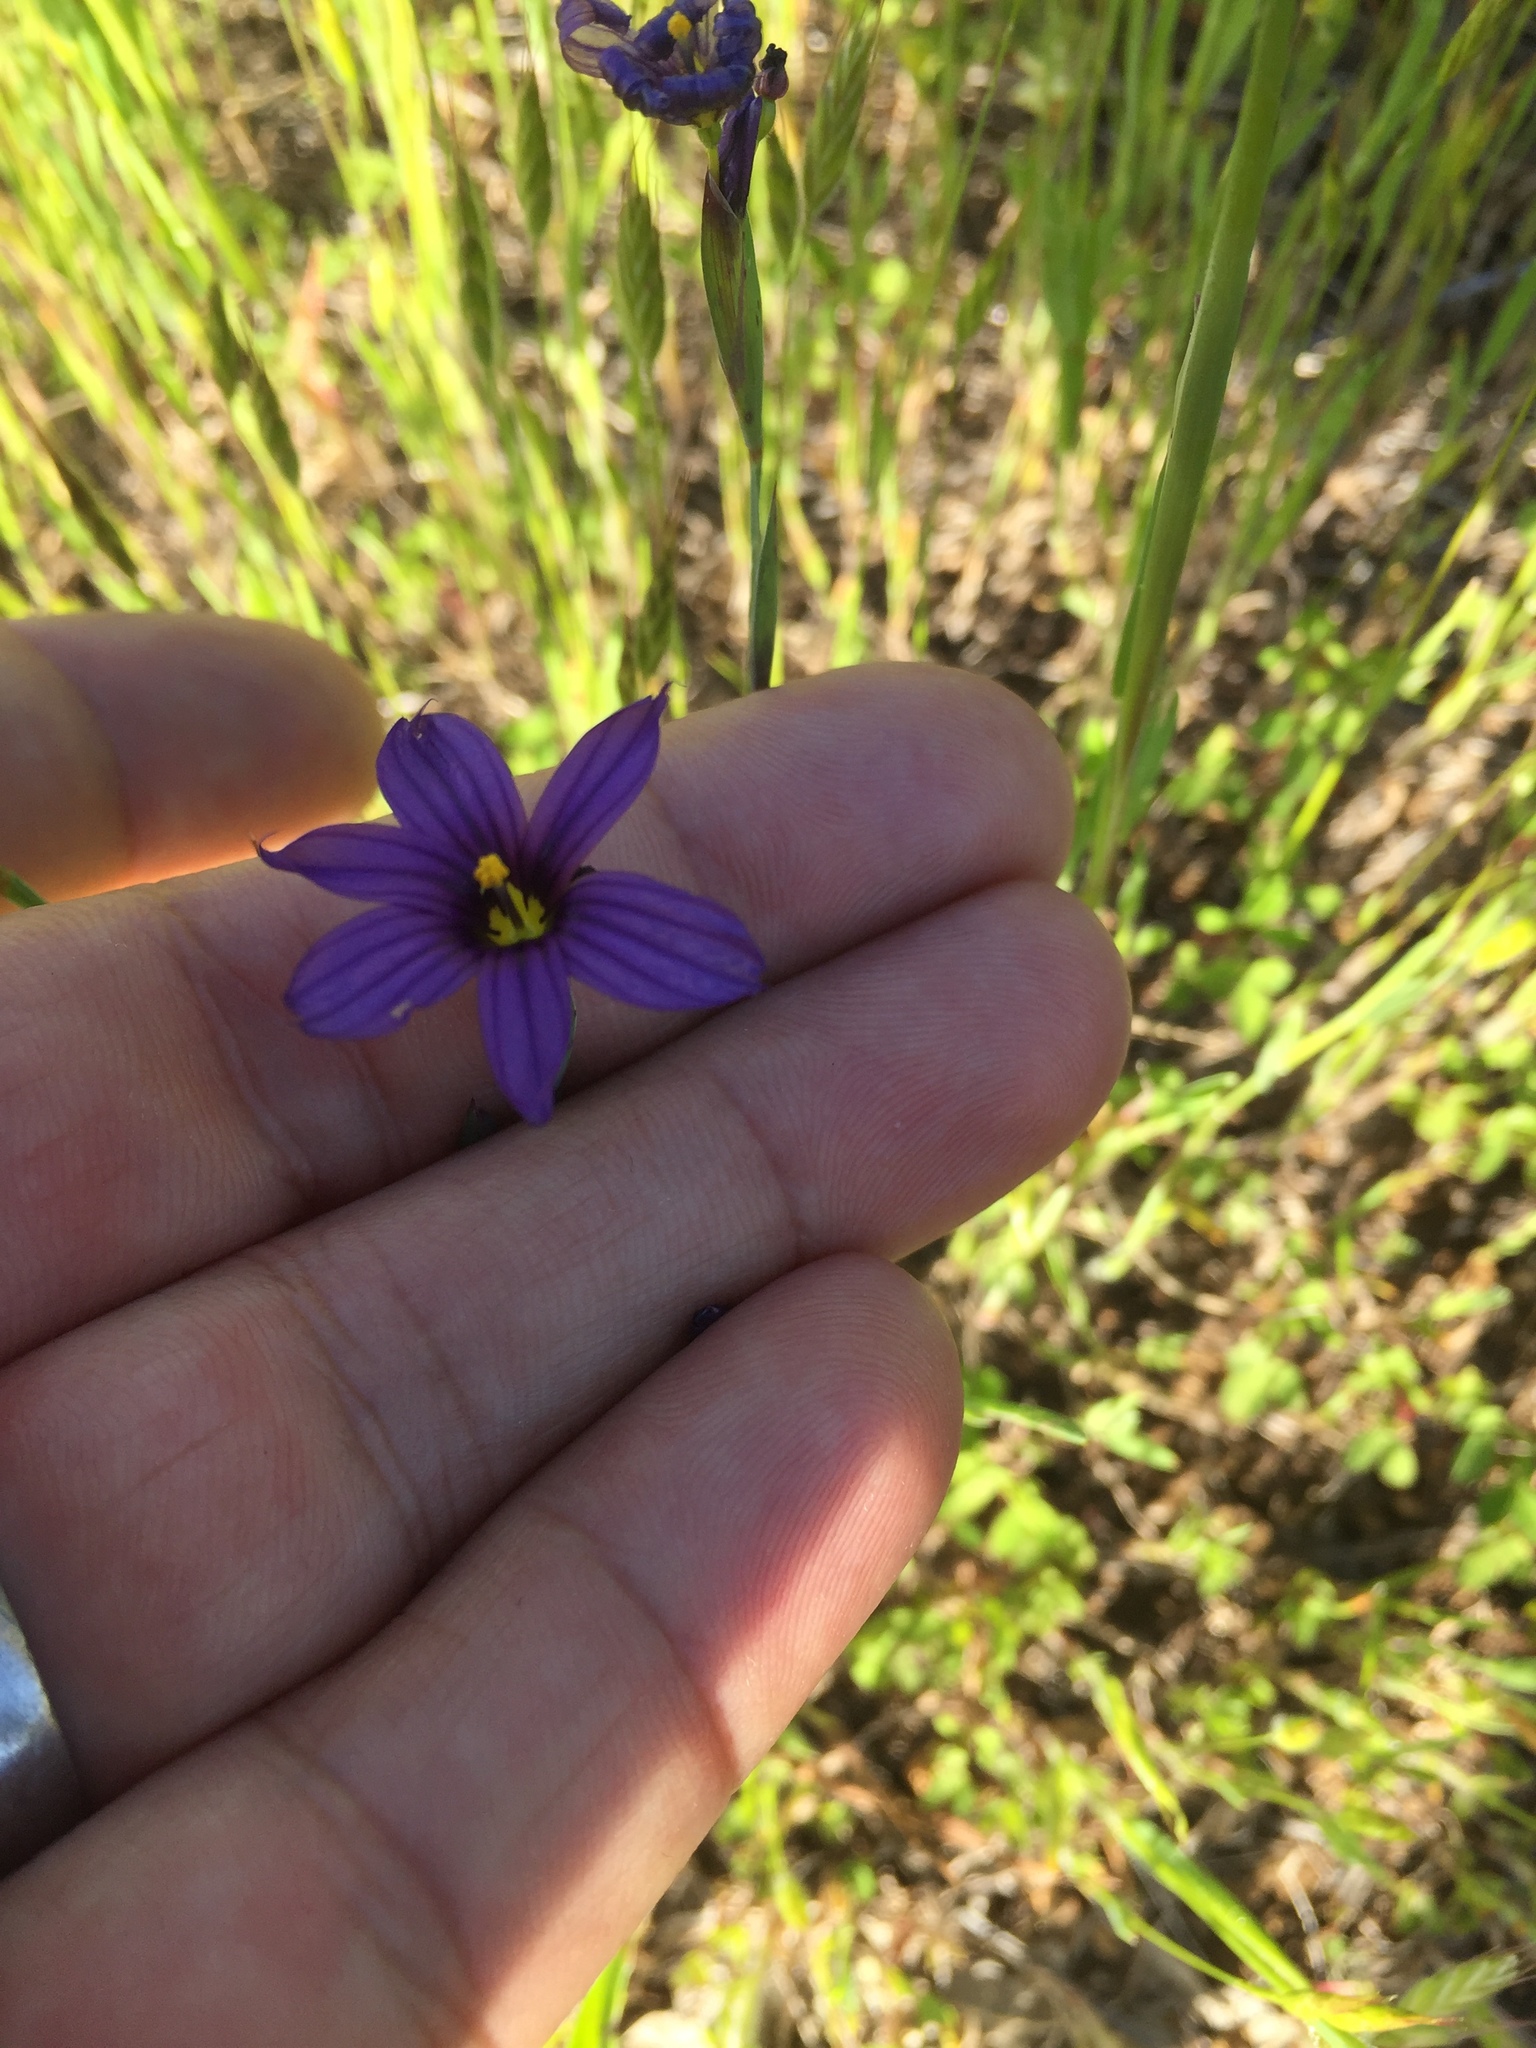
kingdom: Plantae
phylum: Tracheophyta
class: Liliopsida
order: Asparagales
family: Iridaceae
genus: Sisyrinchium
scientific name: Sisyrinchium bellum
